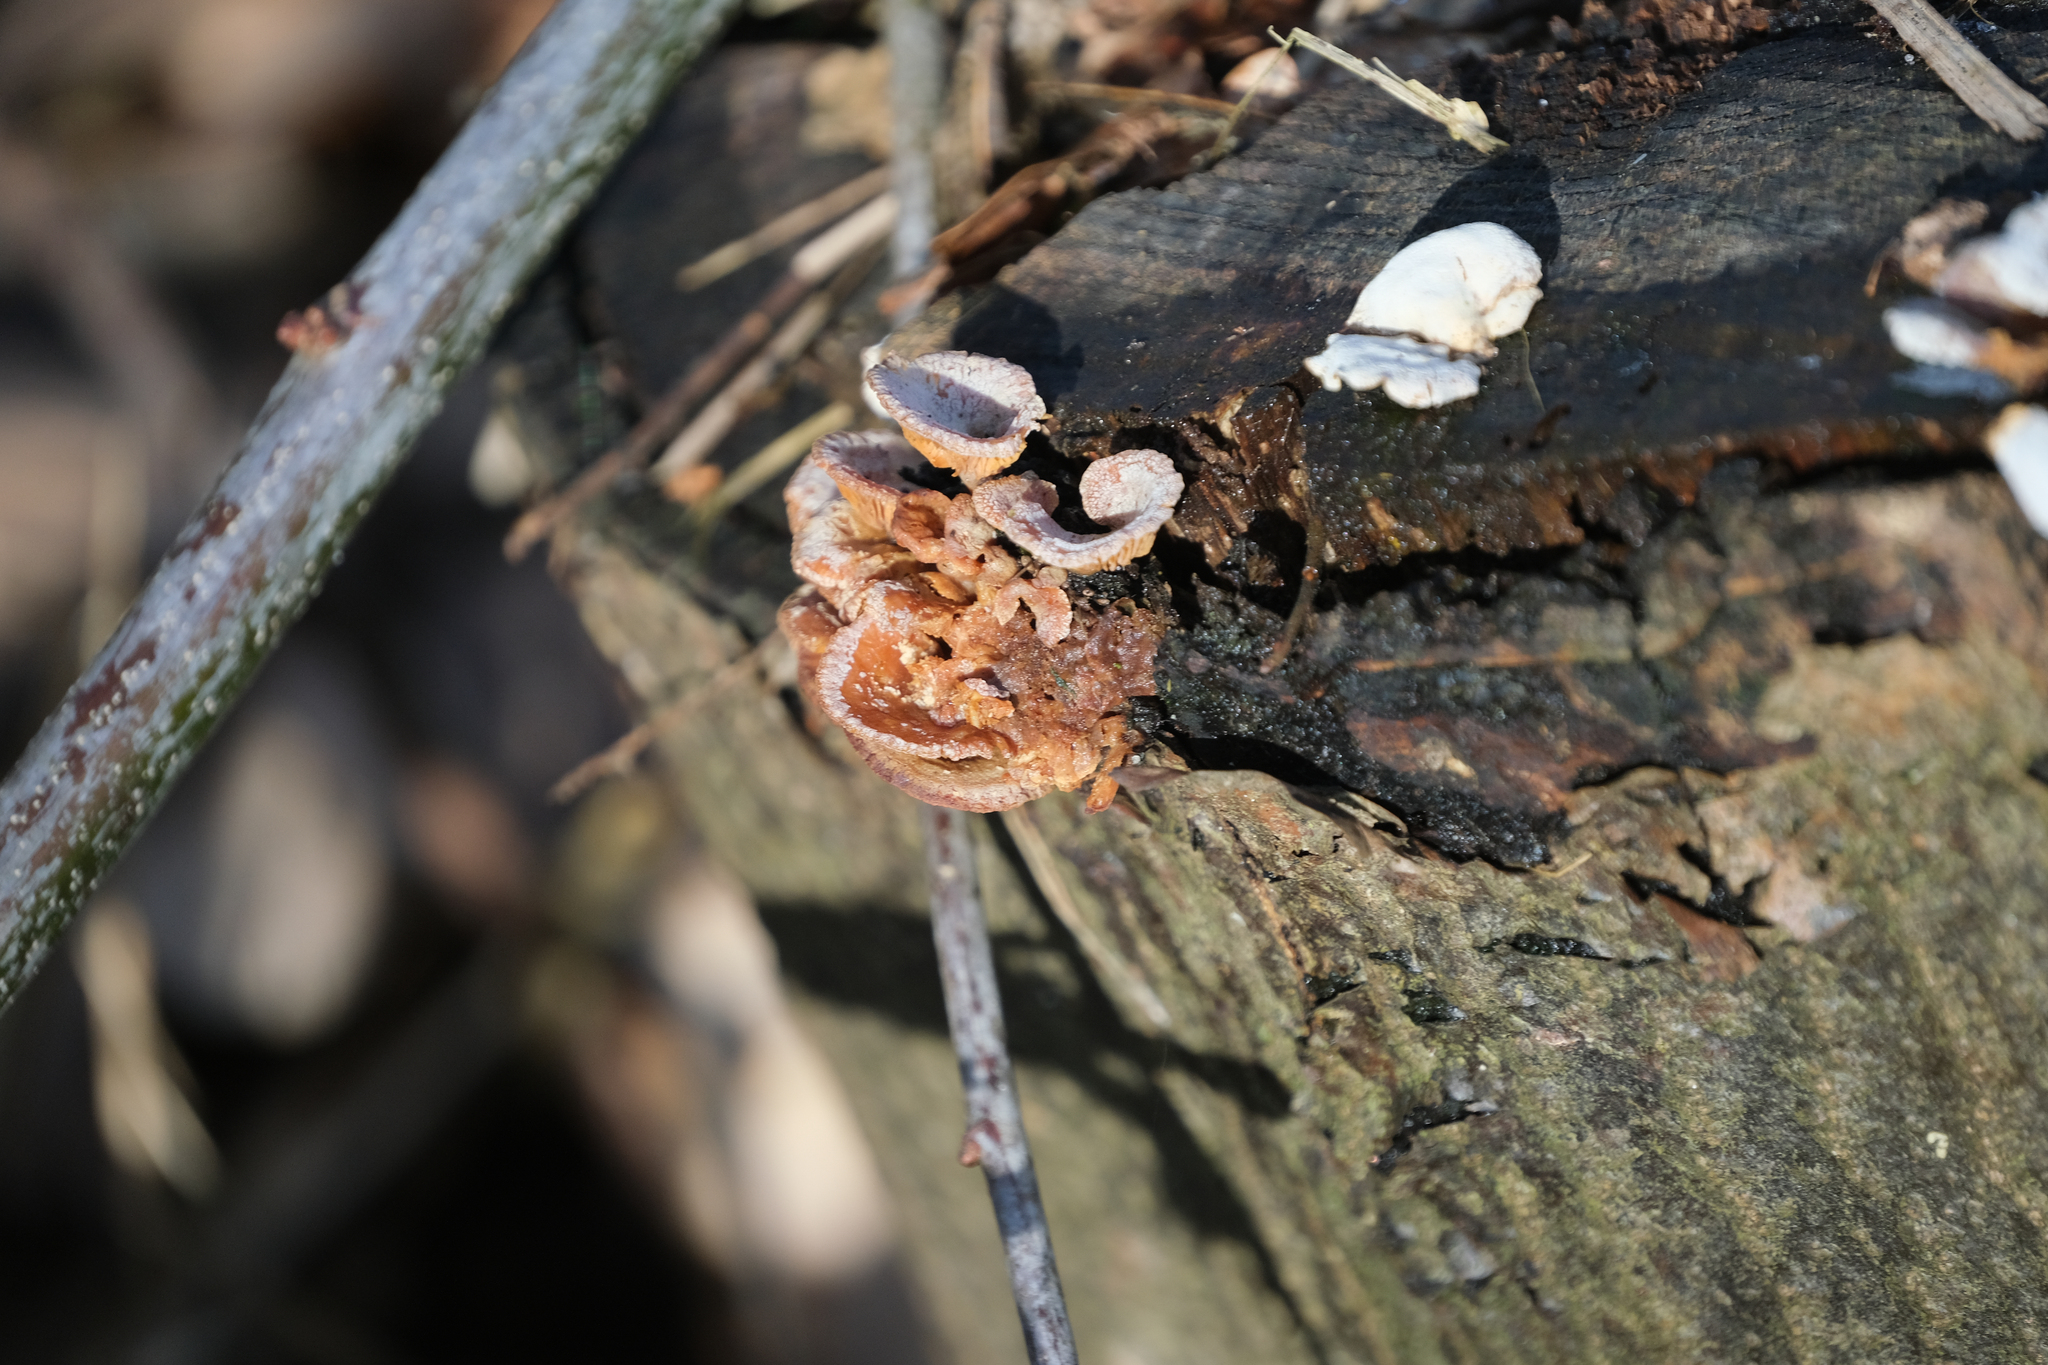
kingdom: Fungi
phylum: Basidiomycota
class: Agaricomycetes
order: Agaricales
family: Mycenaceae
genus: Panellus
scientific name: Panellus stipticus
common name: Bitter oysterling
